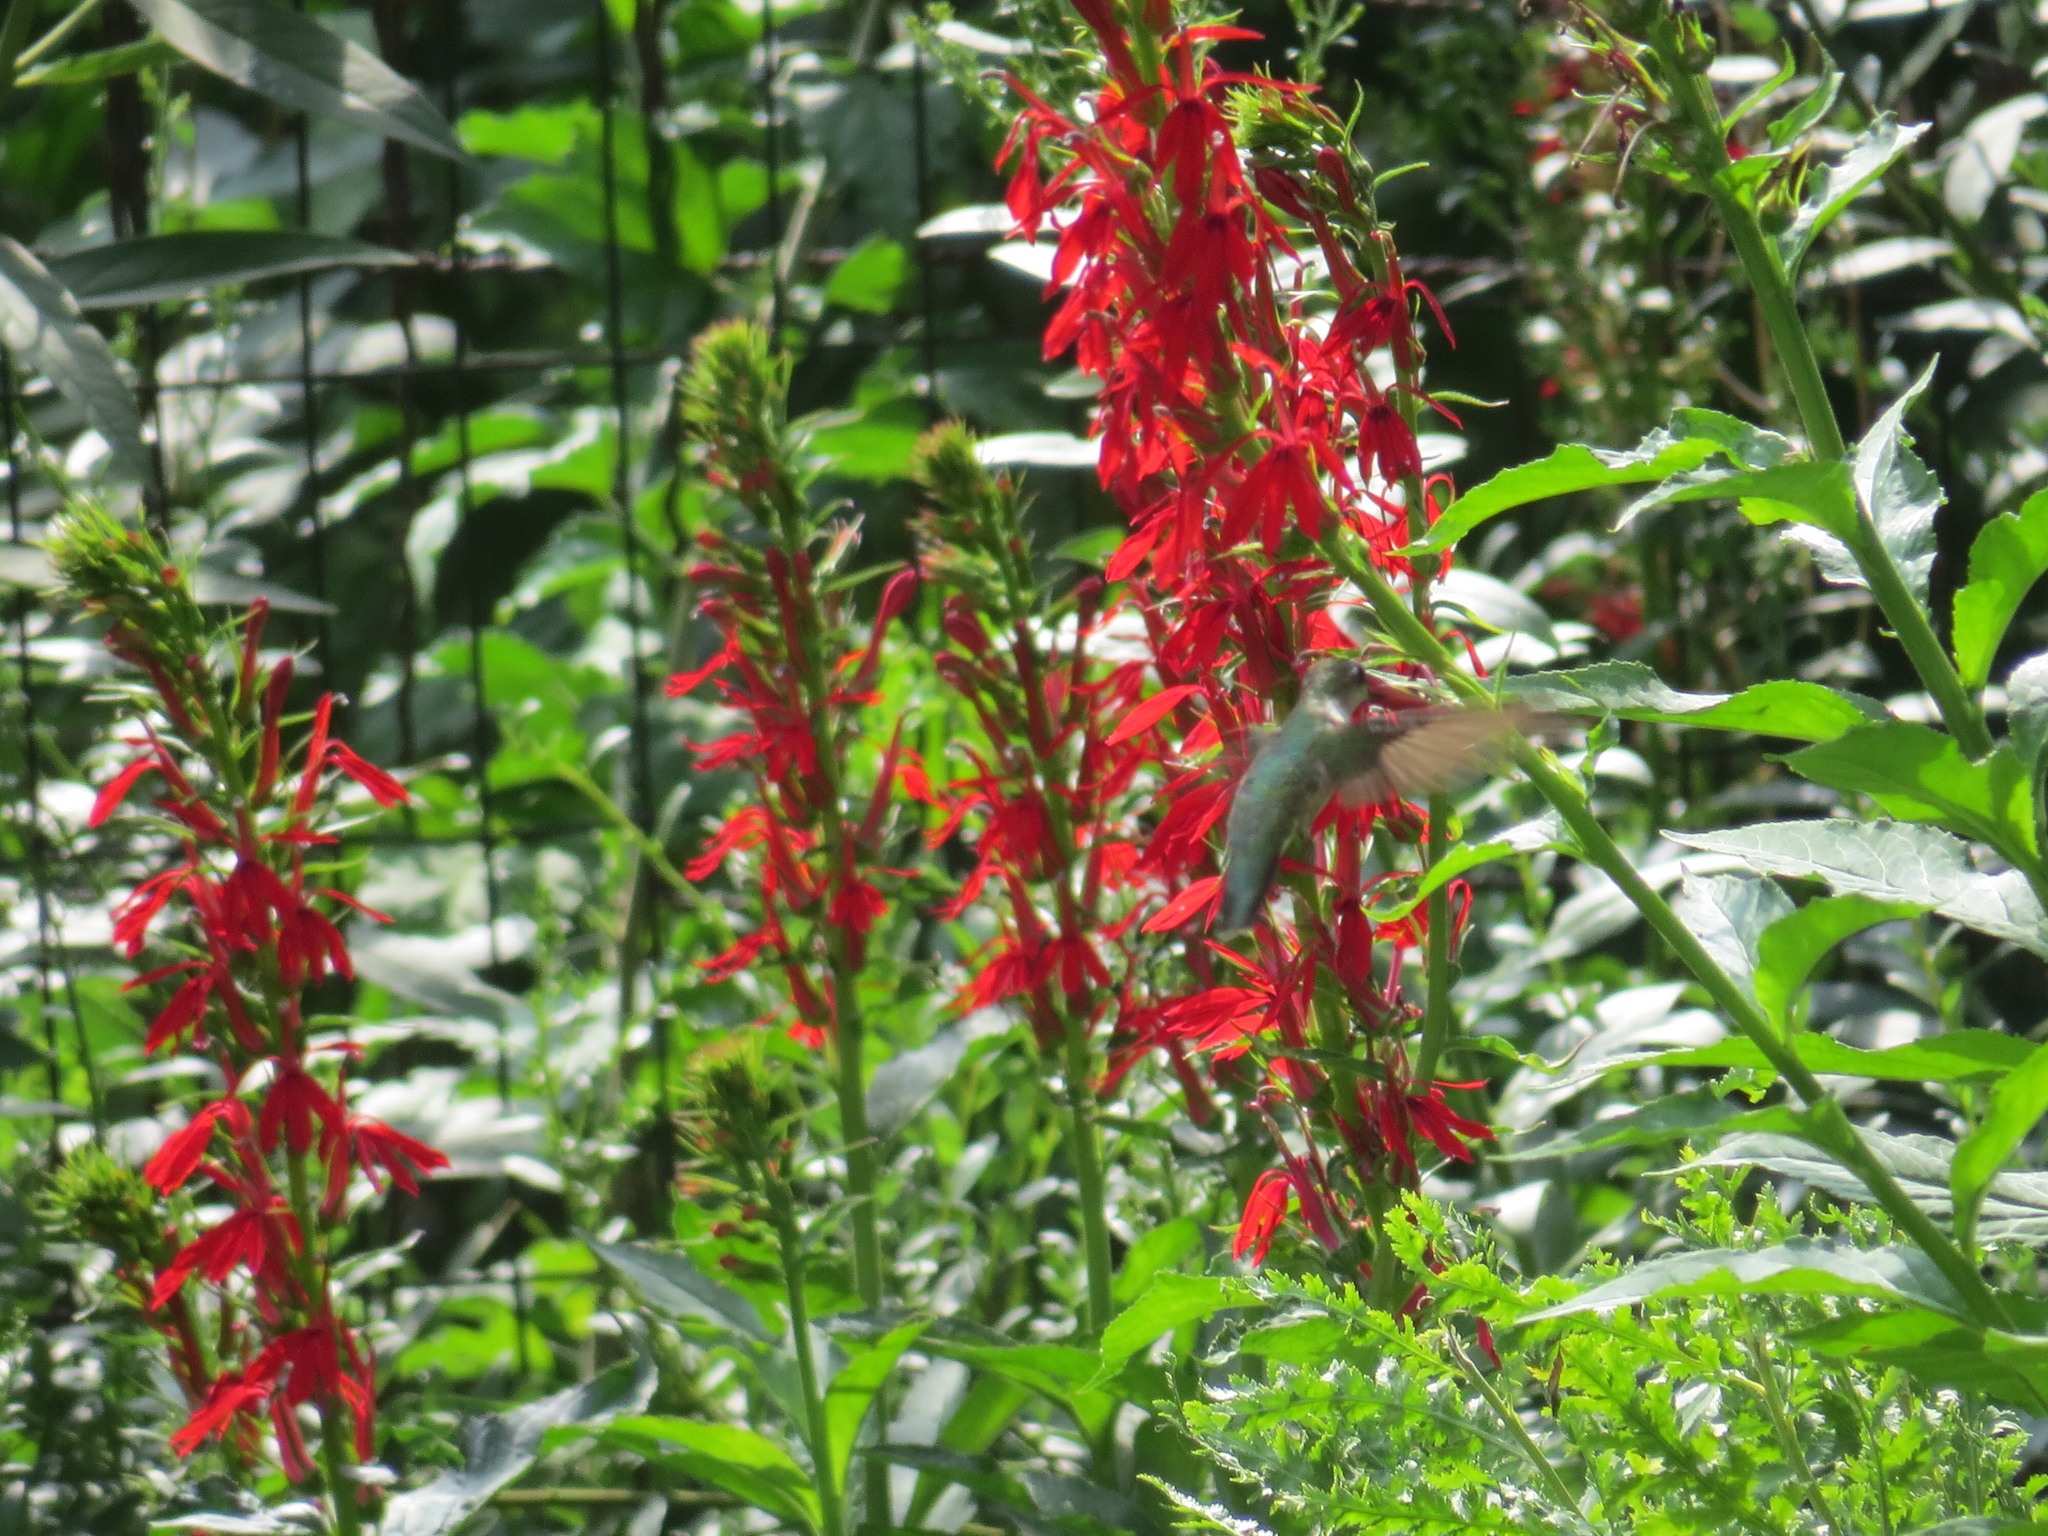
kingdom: Animalia
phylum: Chordata
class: Aves
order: Apodiformes
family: Trochilidae
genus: Archilochus
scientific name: Archilochus colubris
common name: Ruby-throated hummingbird
